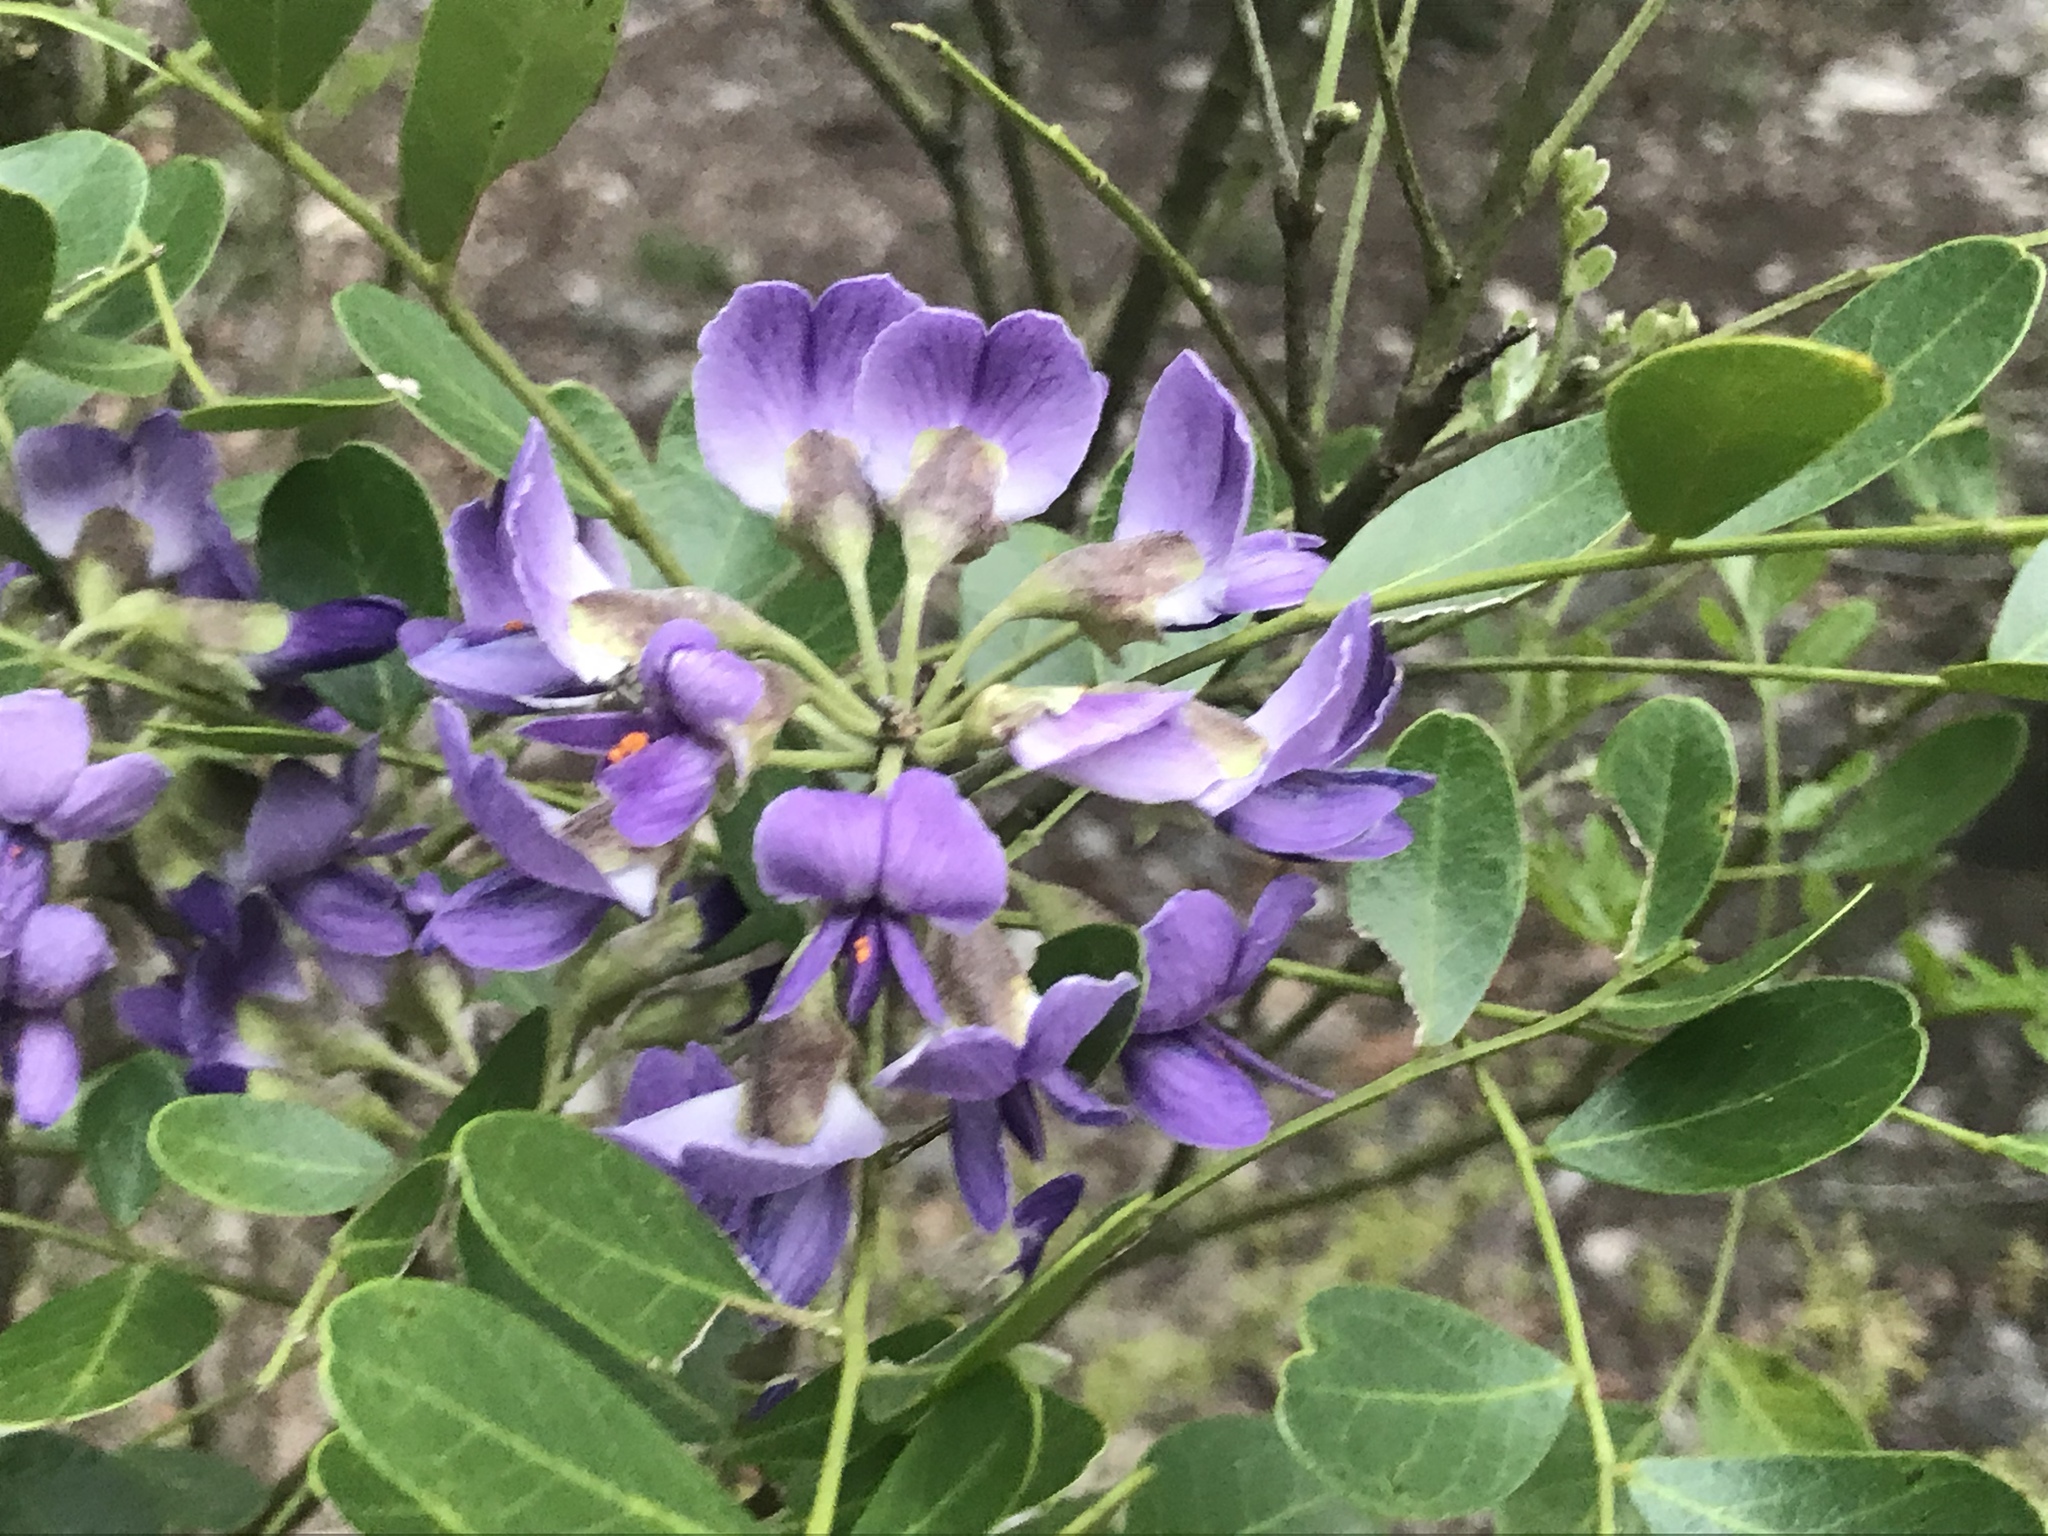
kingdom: Plantae
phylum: Tracheophyta
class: Magnoliopsida
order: Fabales
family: Fabaceae
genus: Dermatophyllum
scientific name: Dermatophyllum secundiflorum
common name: Texas-mountain-laurel
